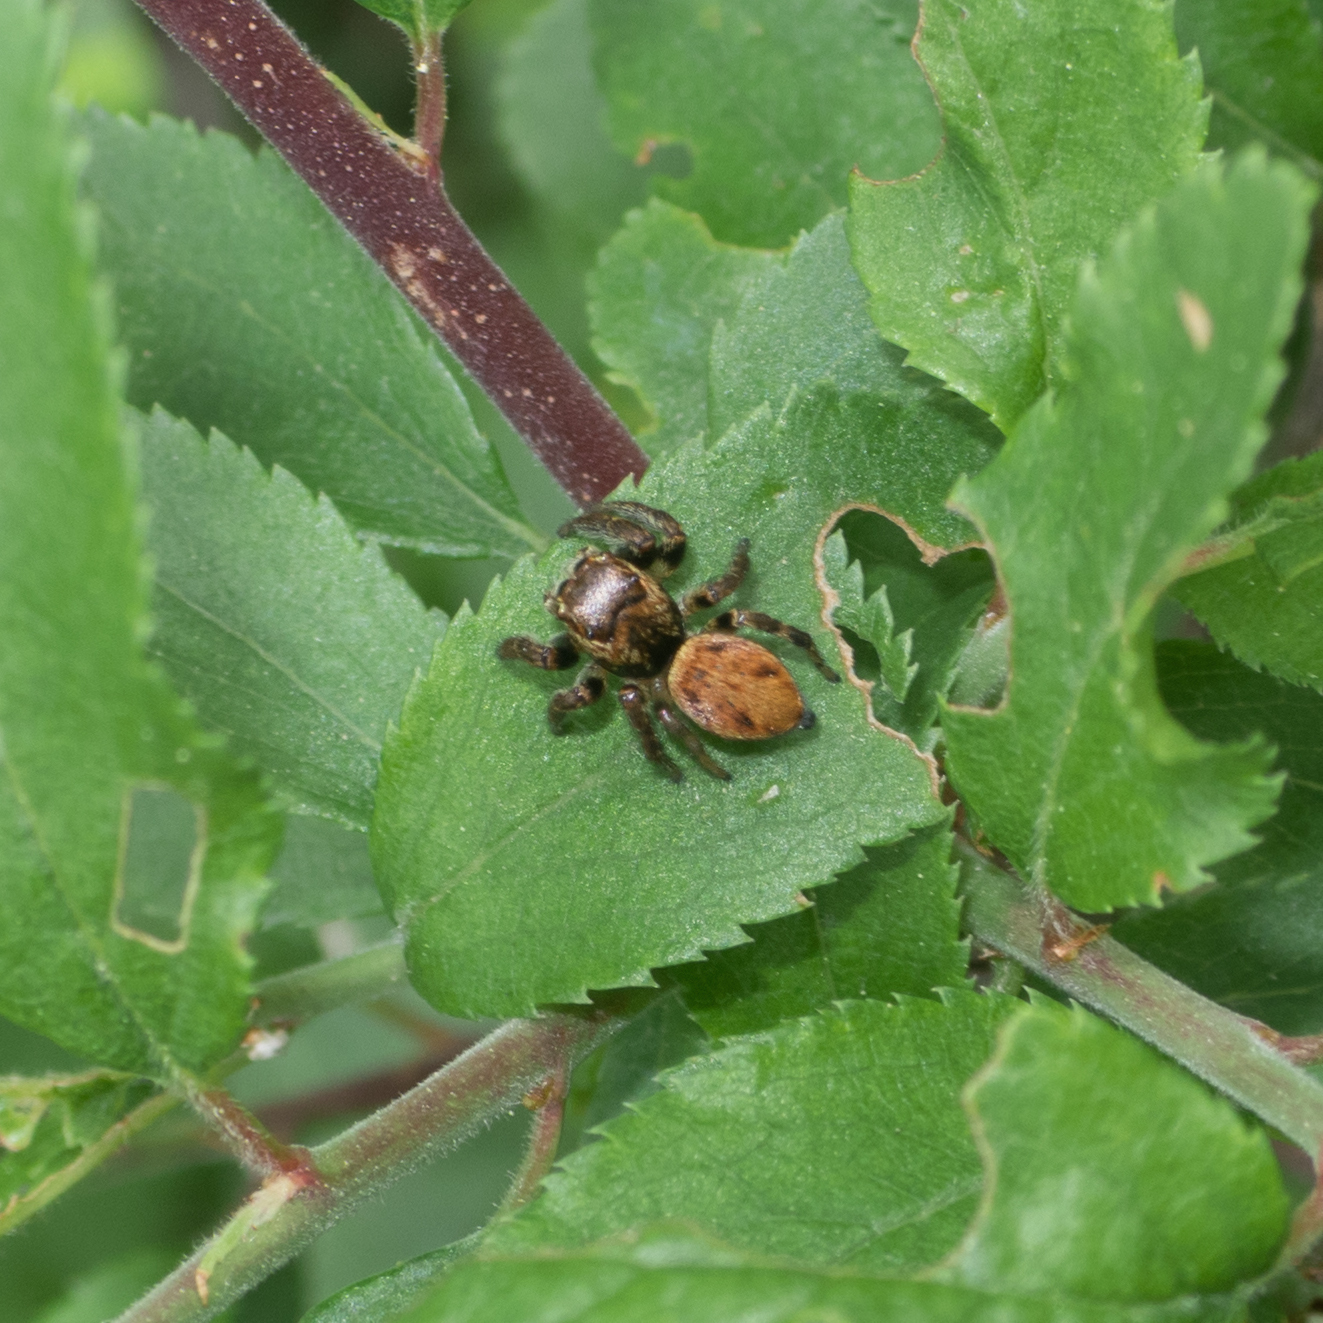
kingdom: Animalia
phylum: Arthropoda
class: Arachnida
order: Araneae
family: Salticidae
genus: Evarcha
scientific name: Evarcha falcata
